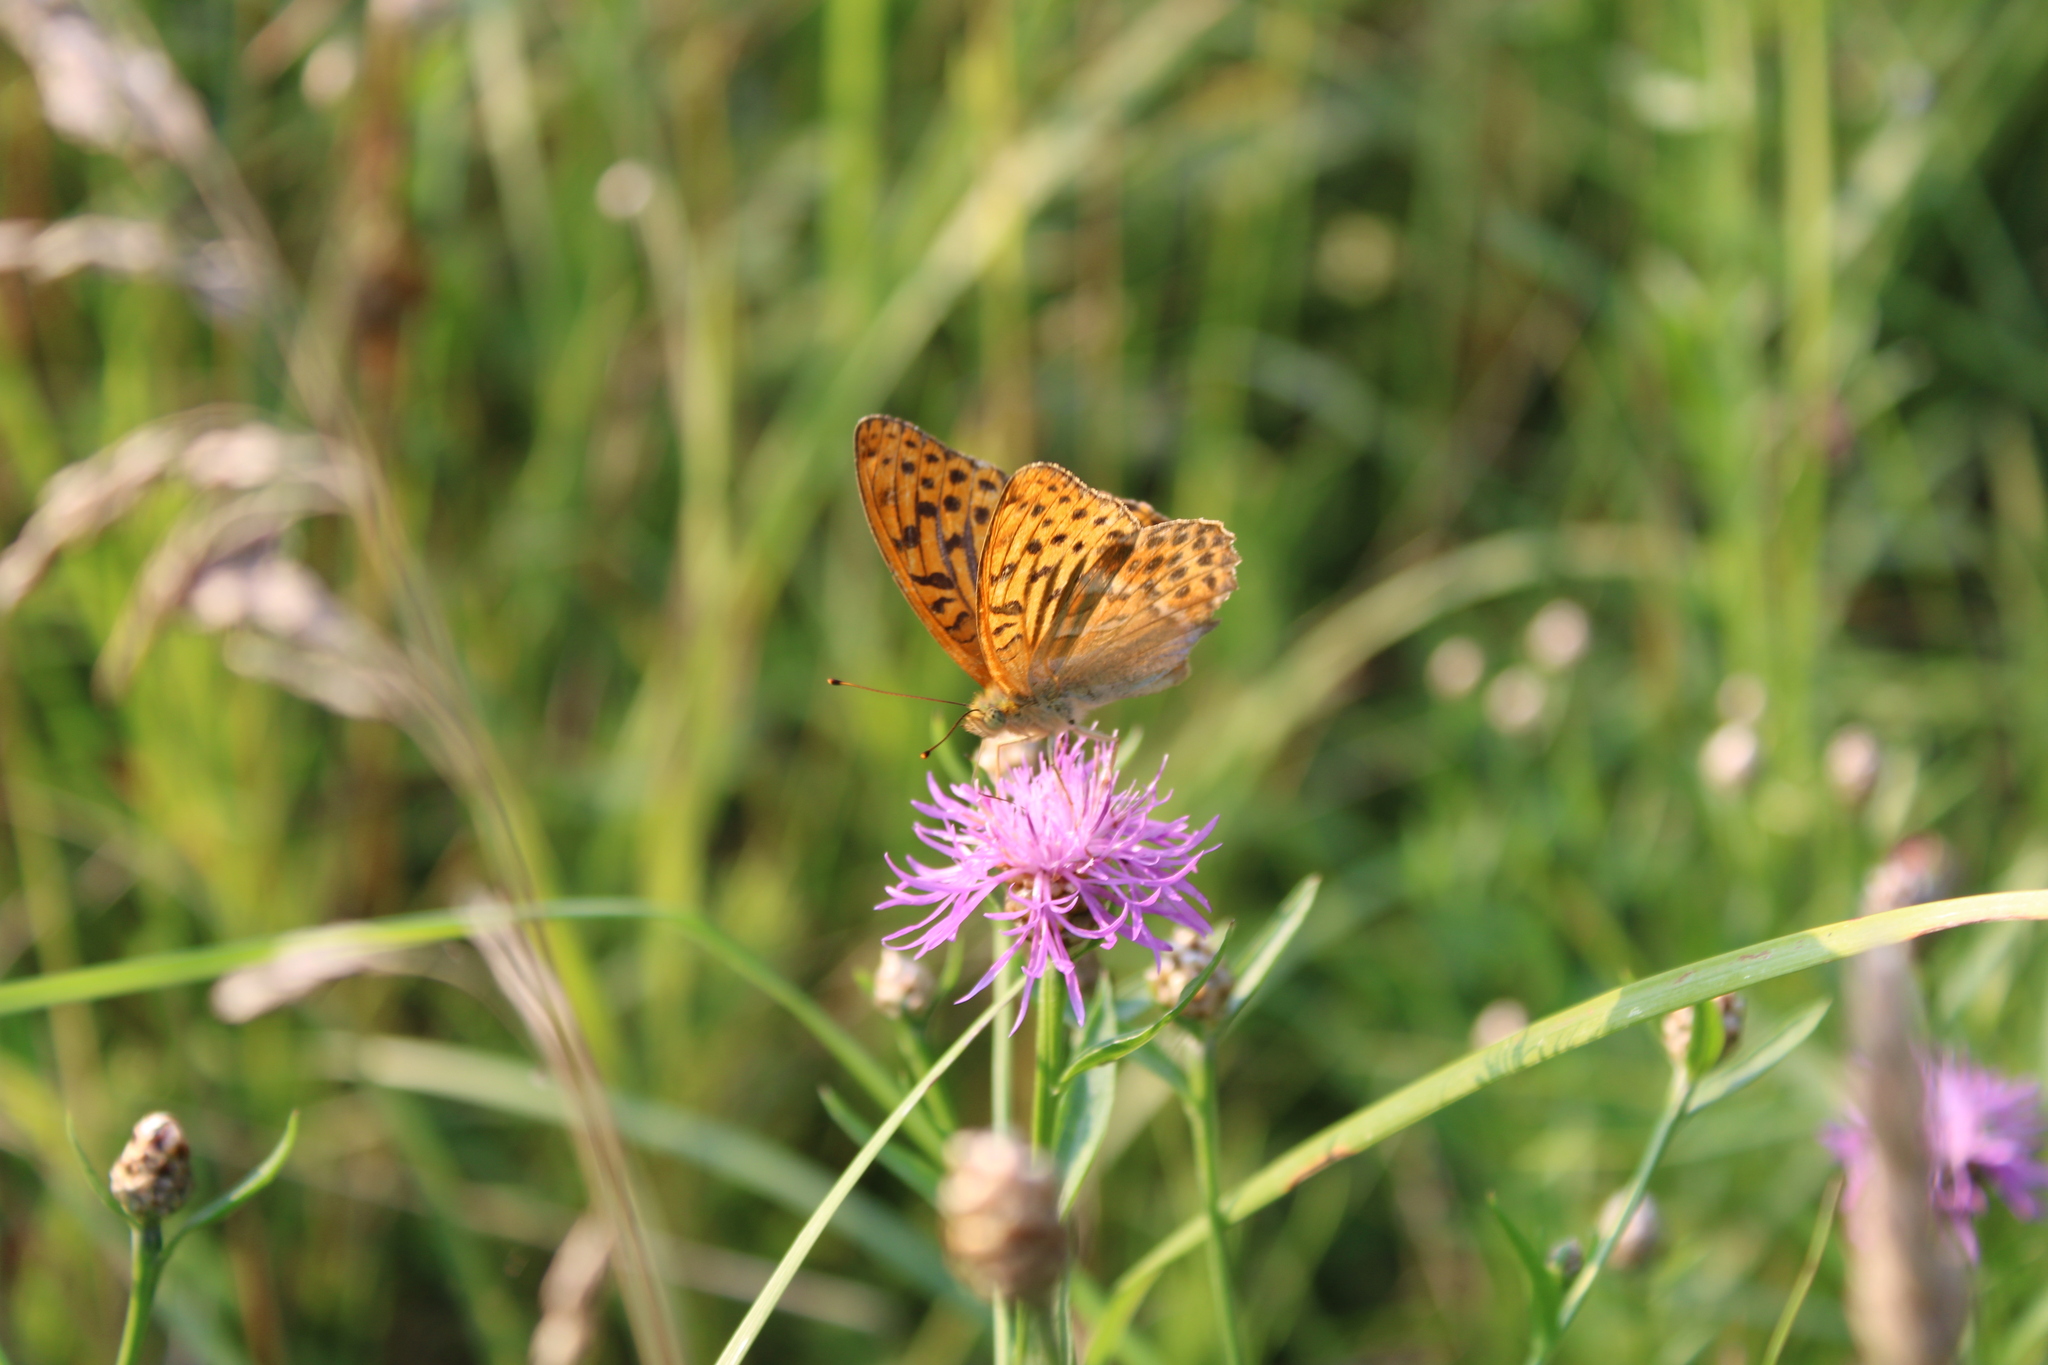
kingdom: Animalia
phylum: Arthropoda
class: Insecta
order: Lepidoptera
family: Nymphalidae
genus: Argynnis
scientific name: Argynnis paphia
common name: Silver-washed fritillary
